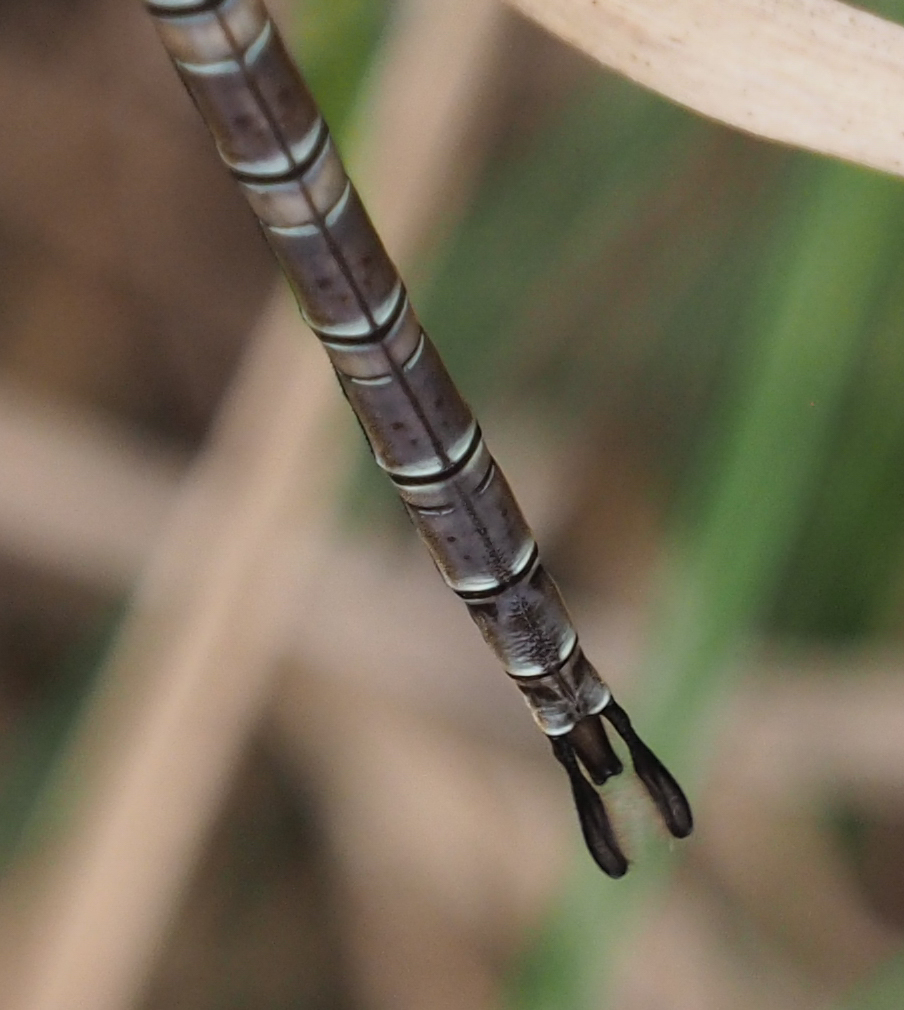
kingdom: Animalia
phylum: Arthropoda
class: Insecta
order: Odonata
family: Aeshnidae
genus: Epiaeschna
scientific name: Epiaeschna heros
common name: Swamp darner
